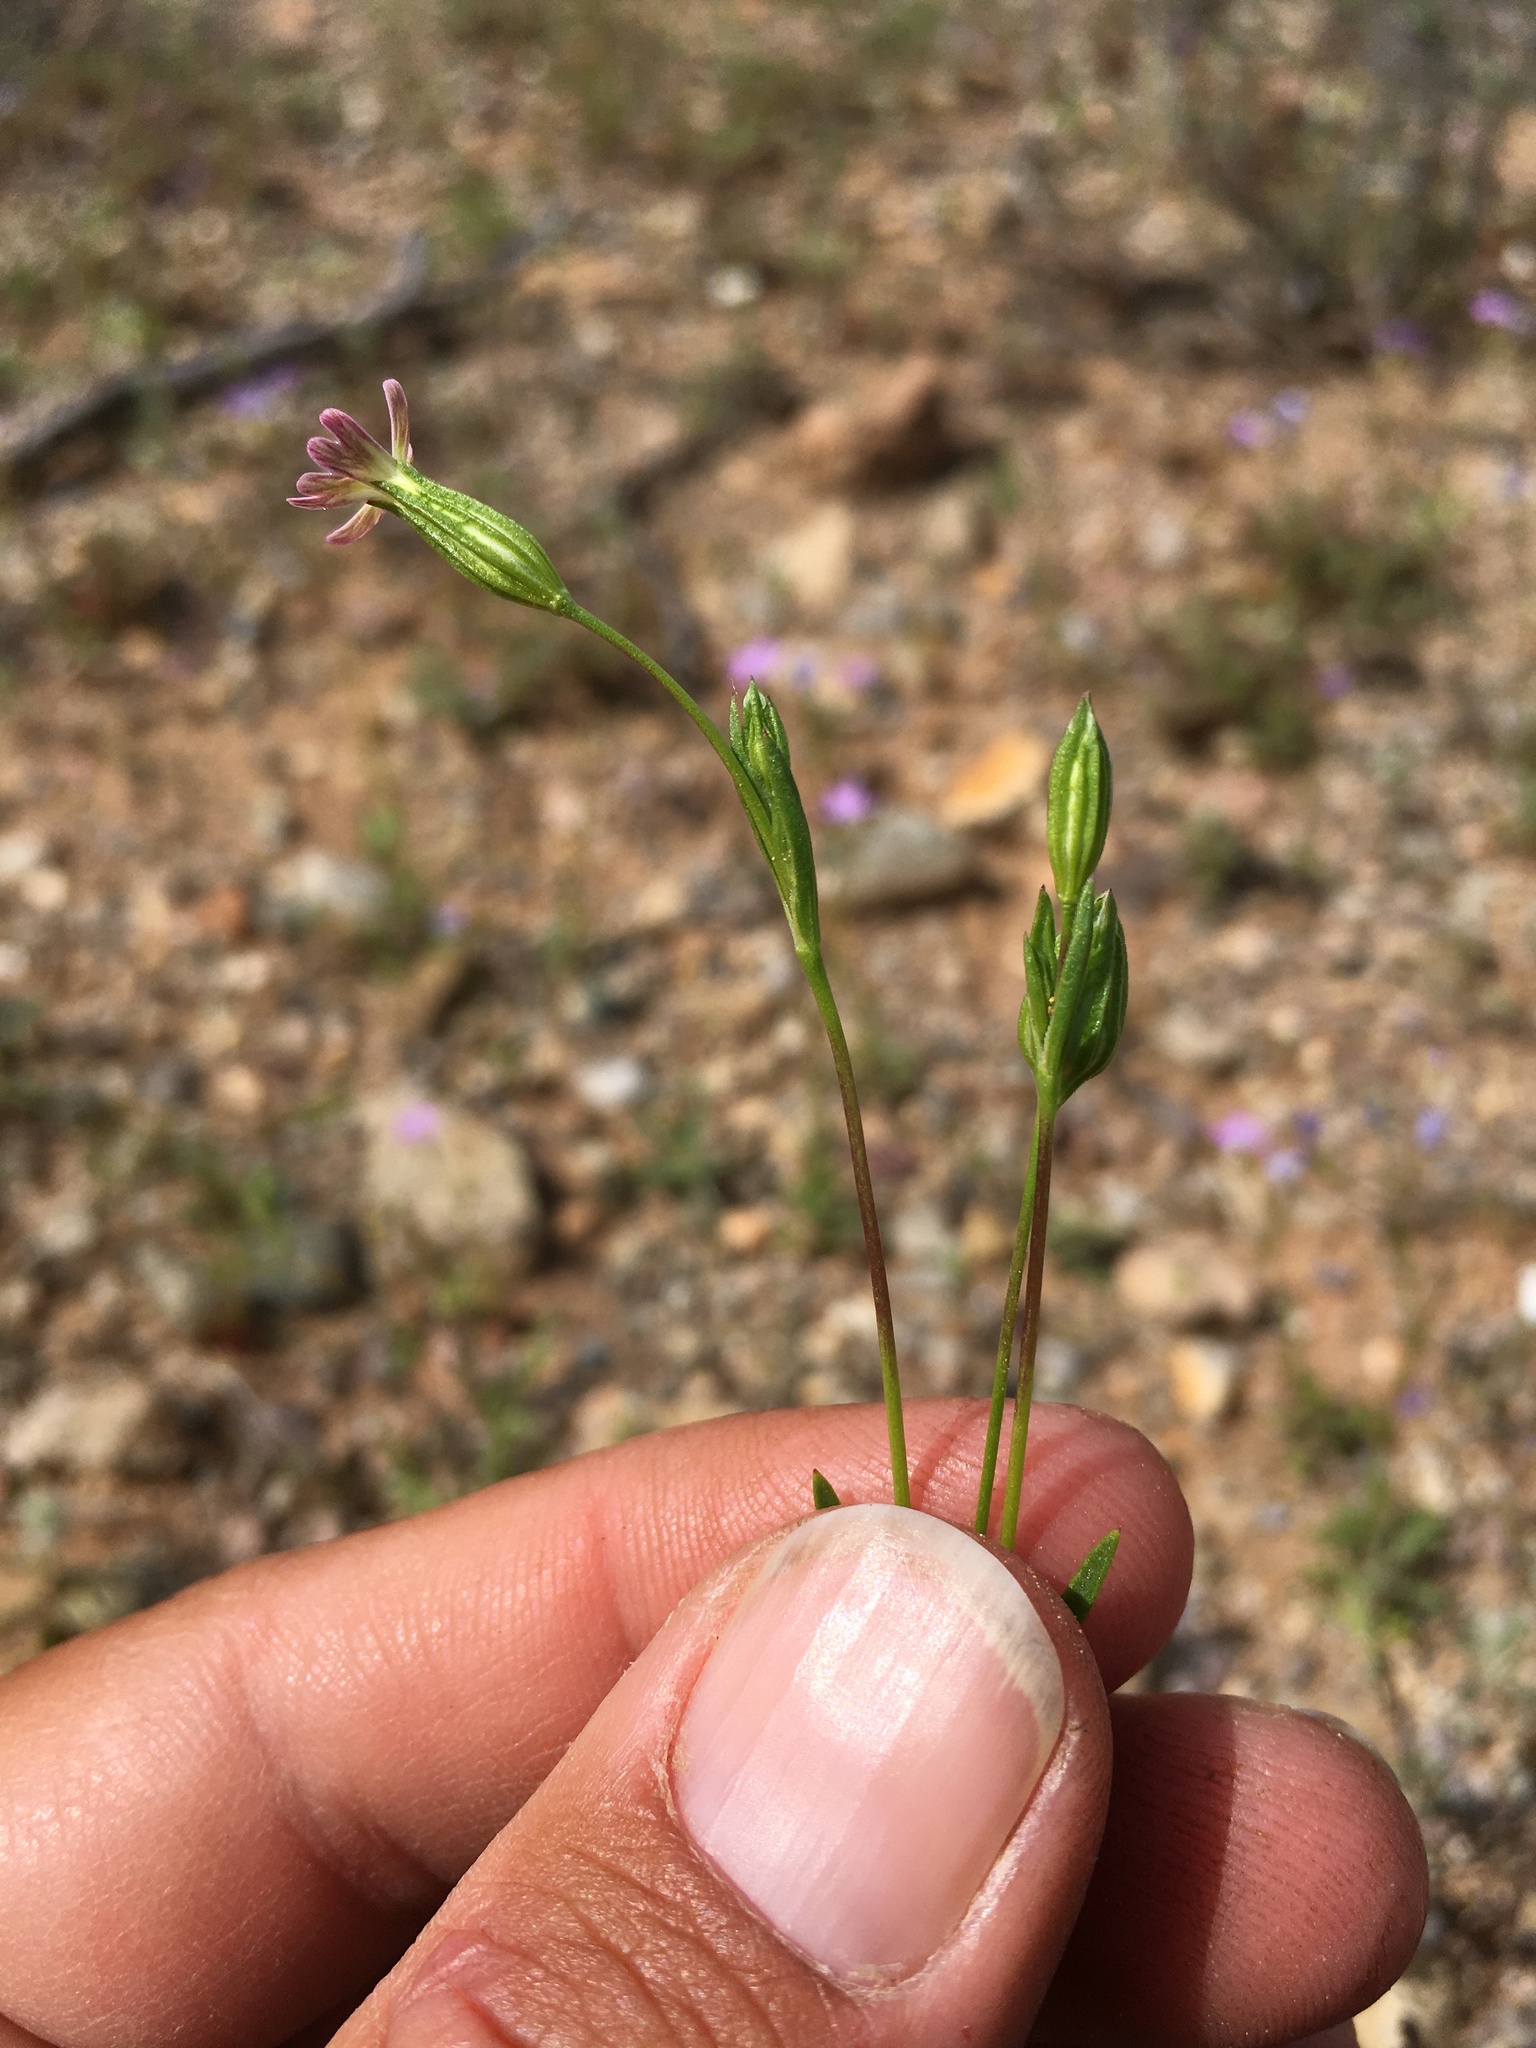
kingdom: Plantae
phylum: Tracheophyta
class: Magnoliopsida
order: Caryophyllales
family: Caryophyllaceae
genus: Silene
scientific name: Silene antirrhina
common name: Sleepy catchfly
